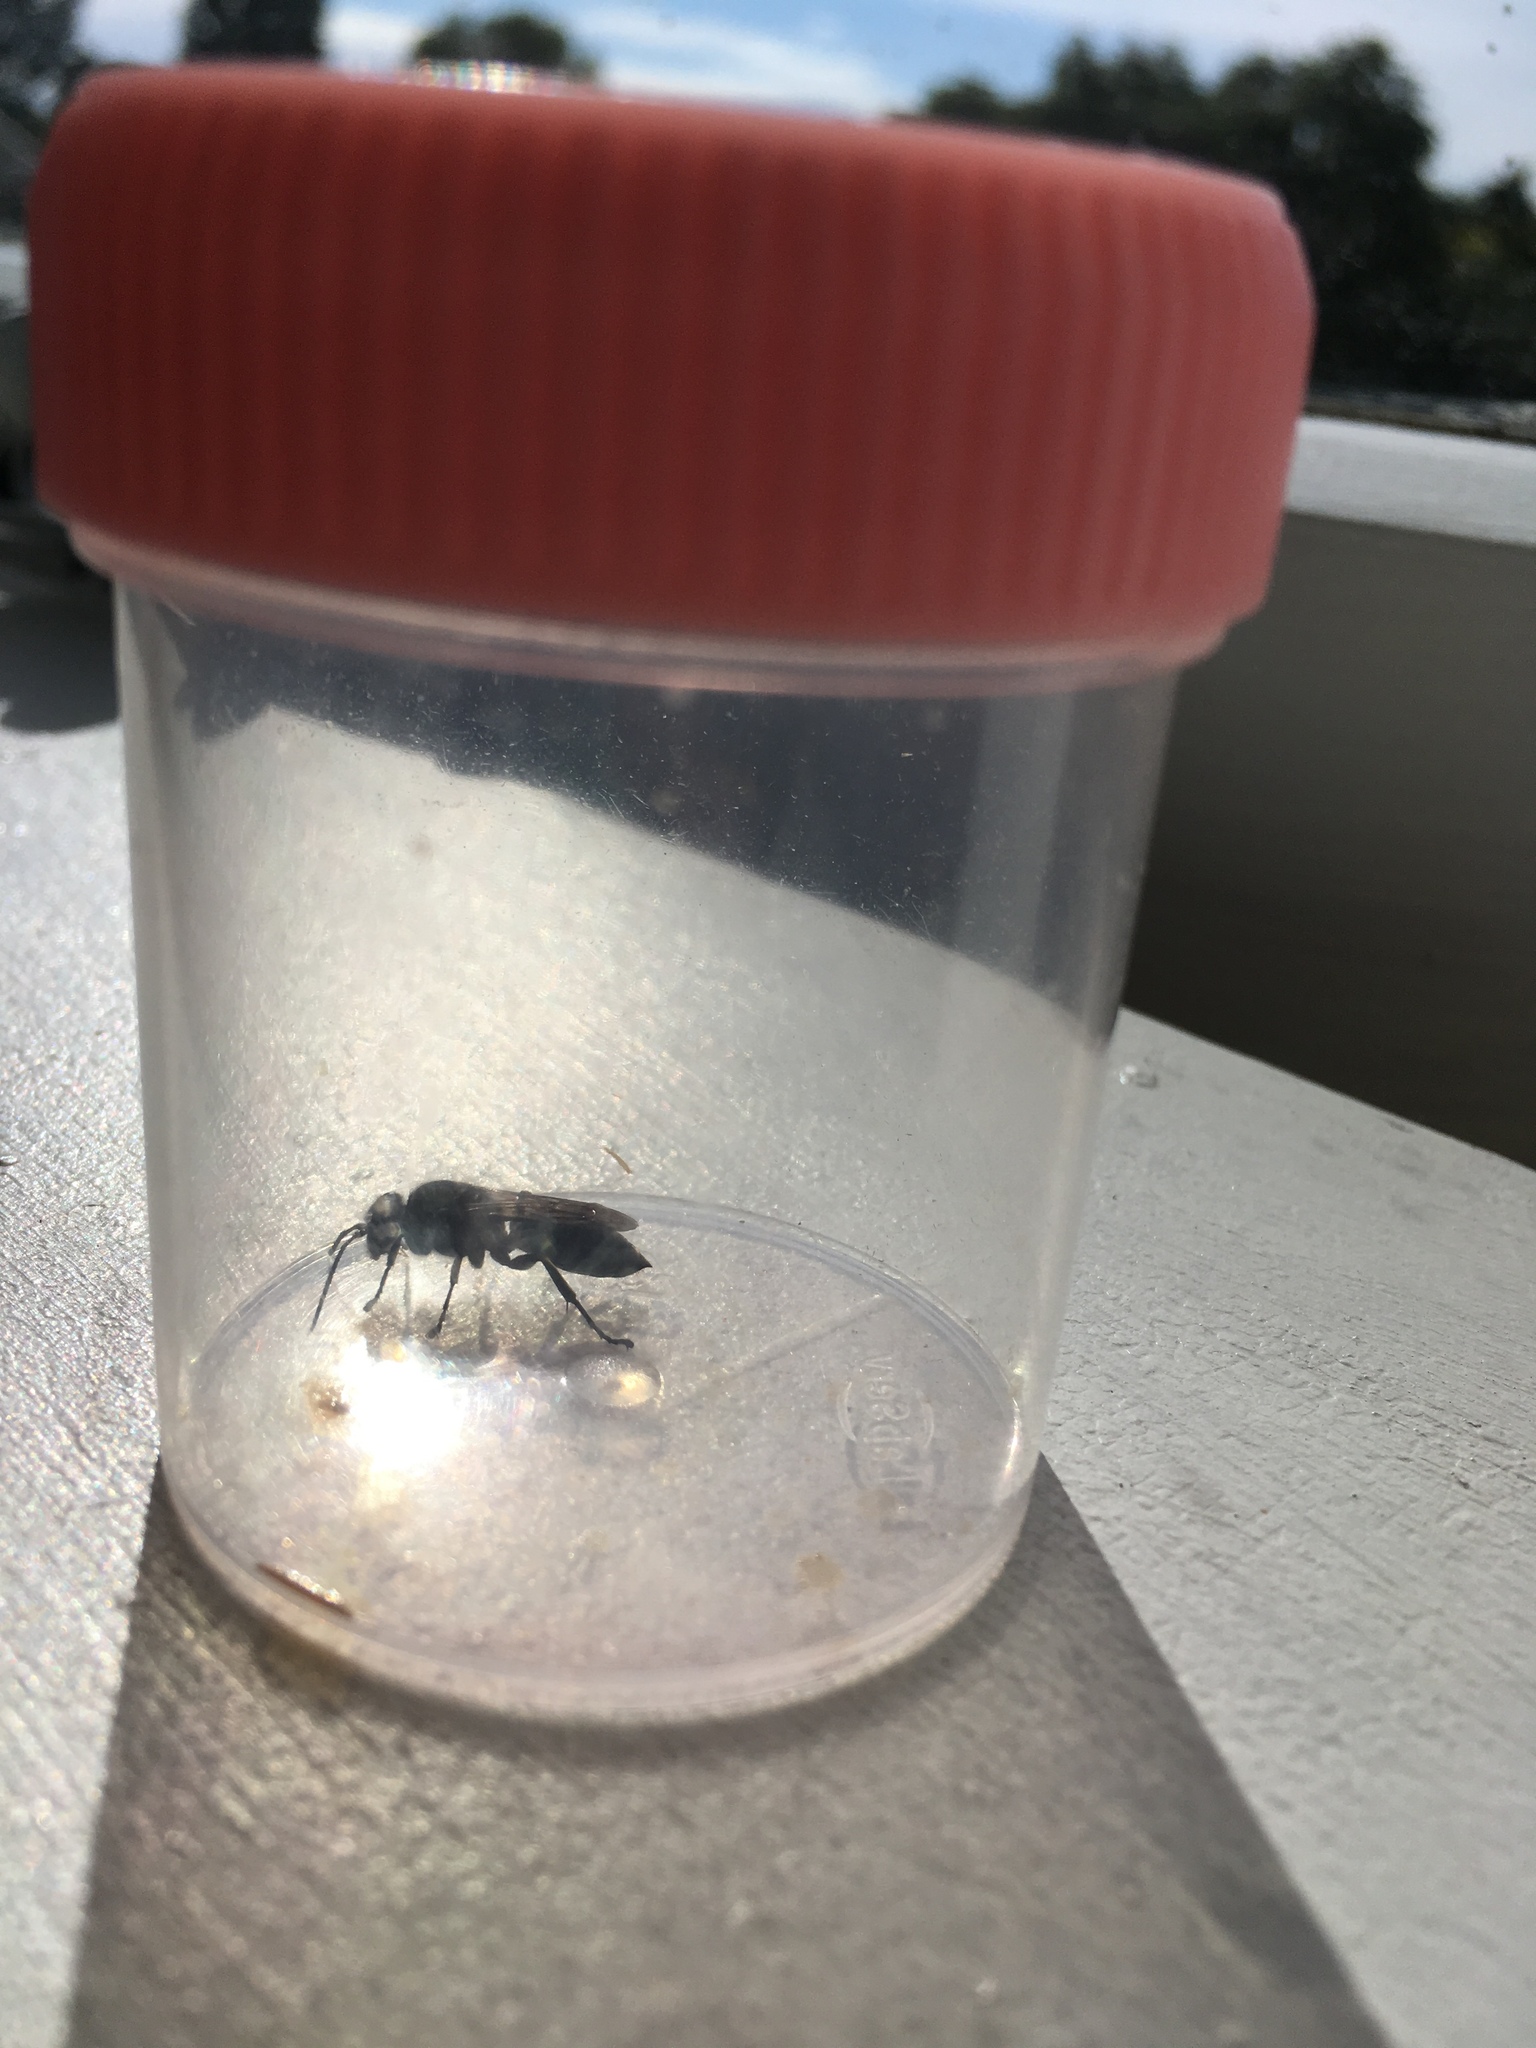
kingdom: Animalia
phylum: Arthropoda
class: Insecta
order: Hymenoptera
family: Crabronidae
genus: Pison
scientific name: Pison spinolae
